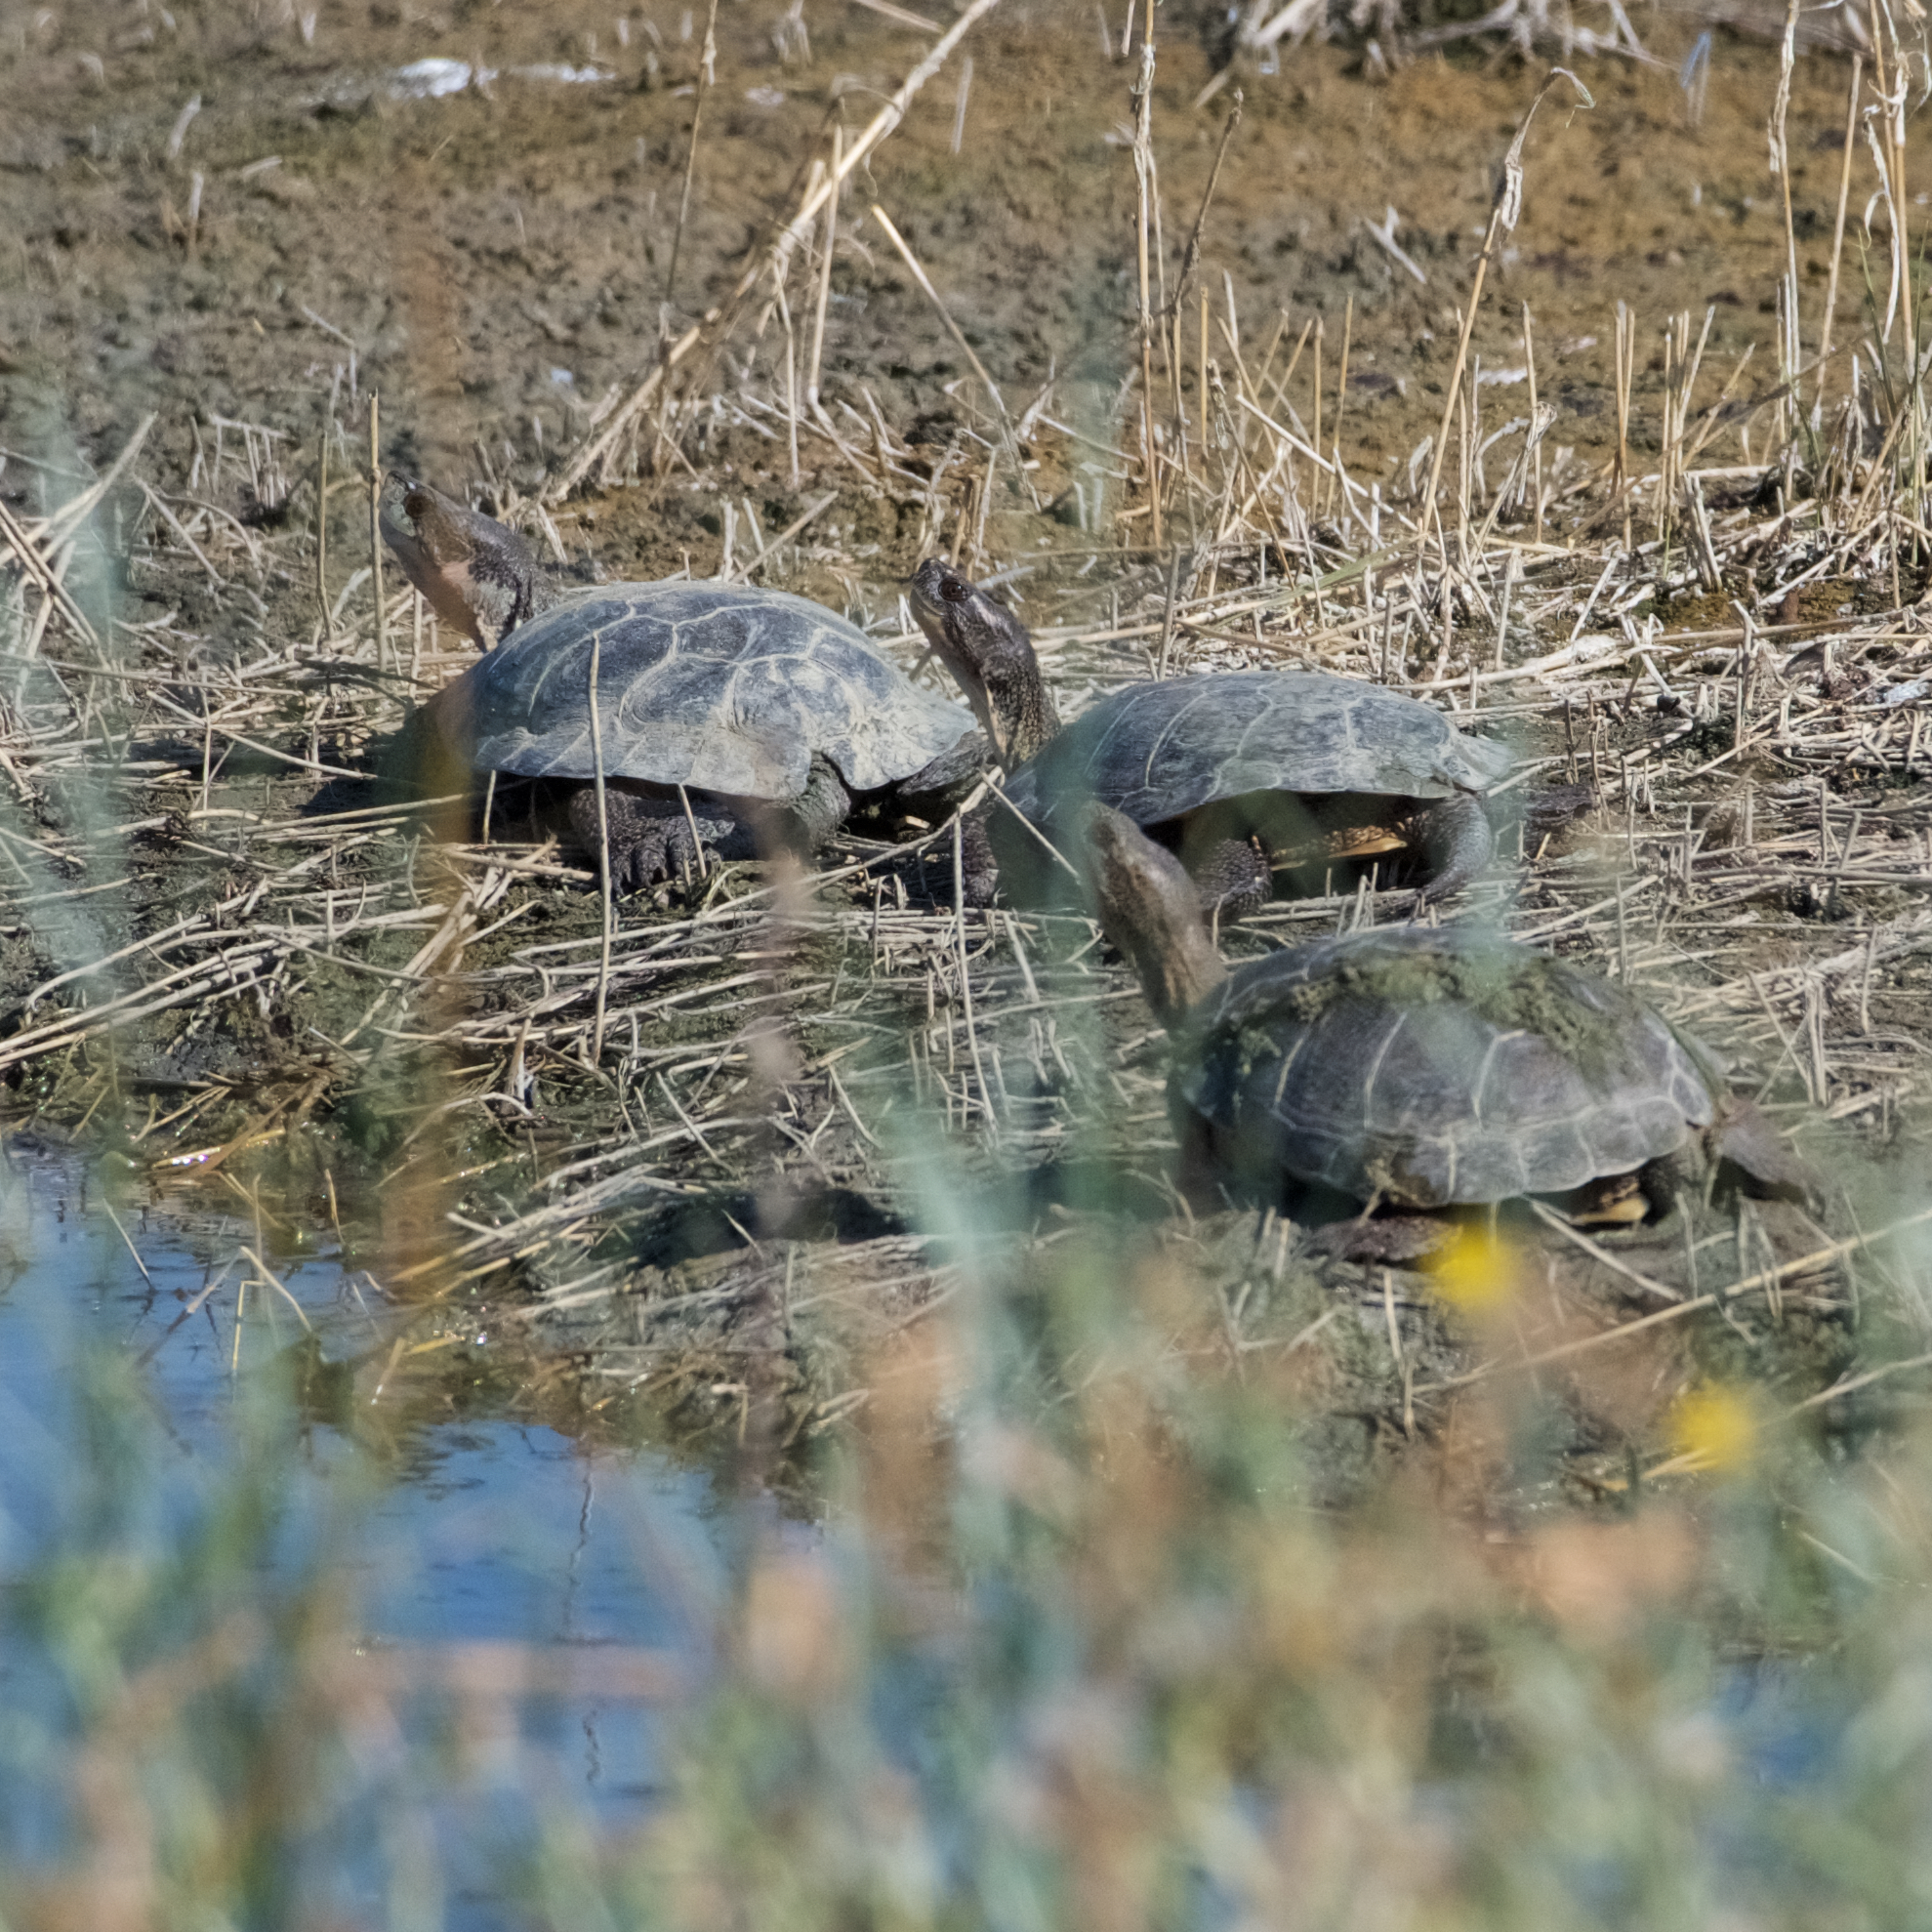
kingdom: Animalia
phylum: Chordata
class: Testudines
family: Emydidae
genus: Actinemys
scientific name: Actinemys marmorata
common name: Western pond turtle
